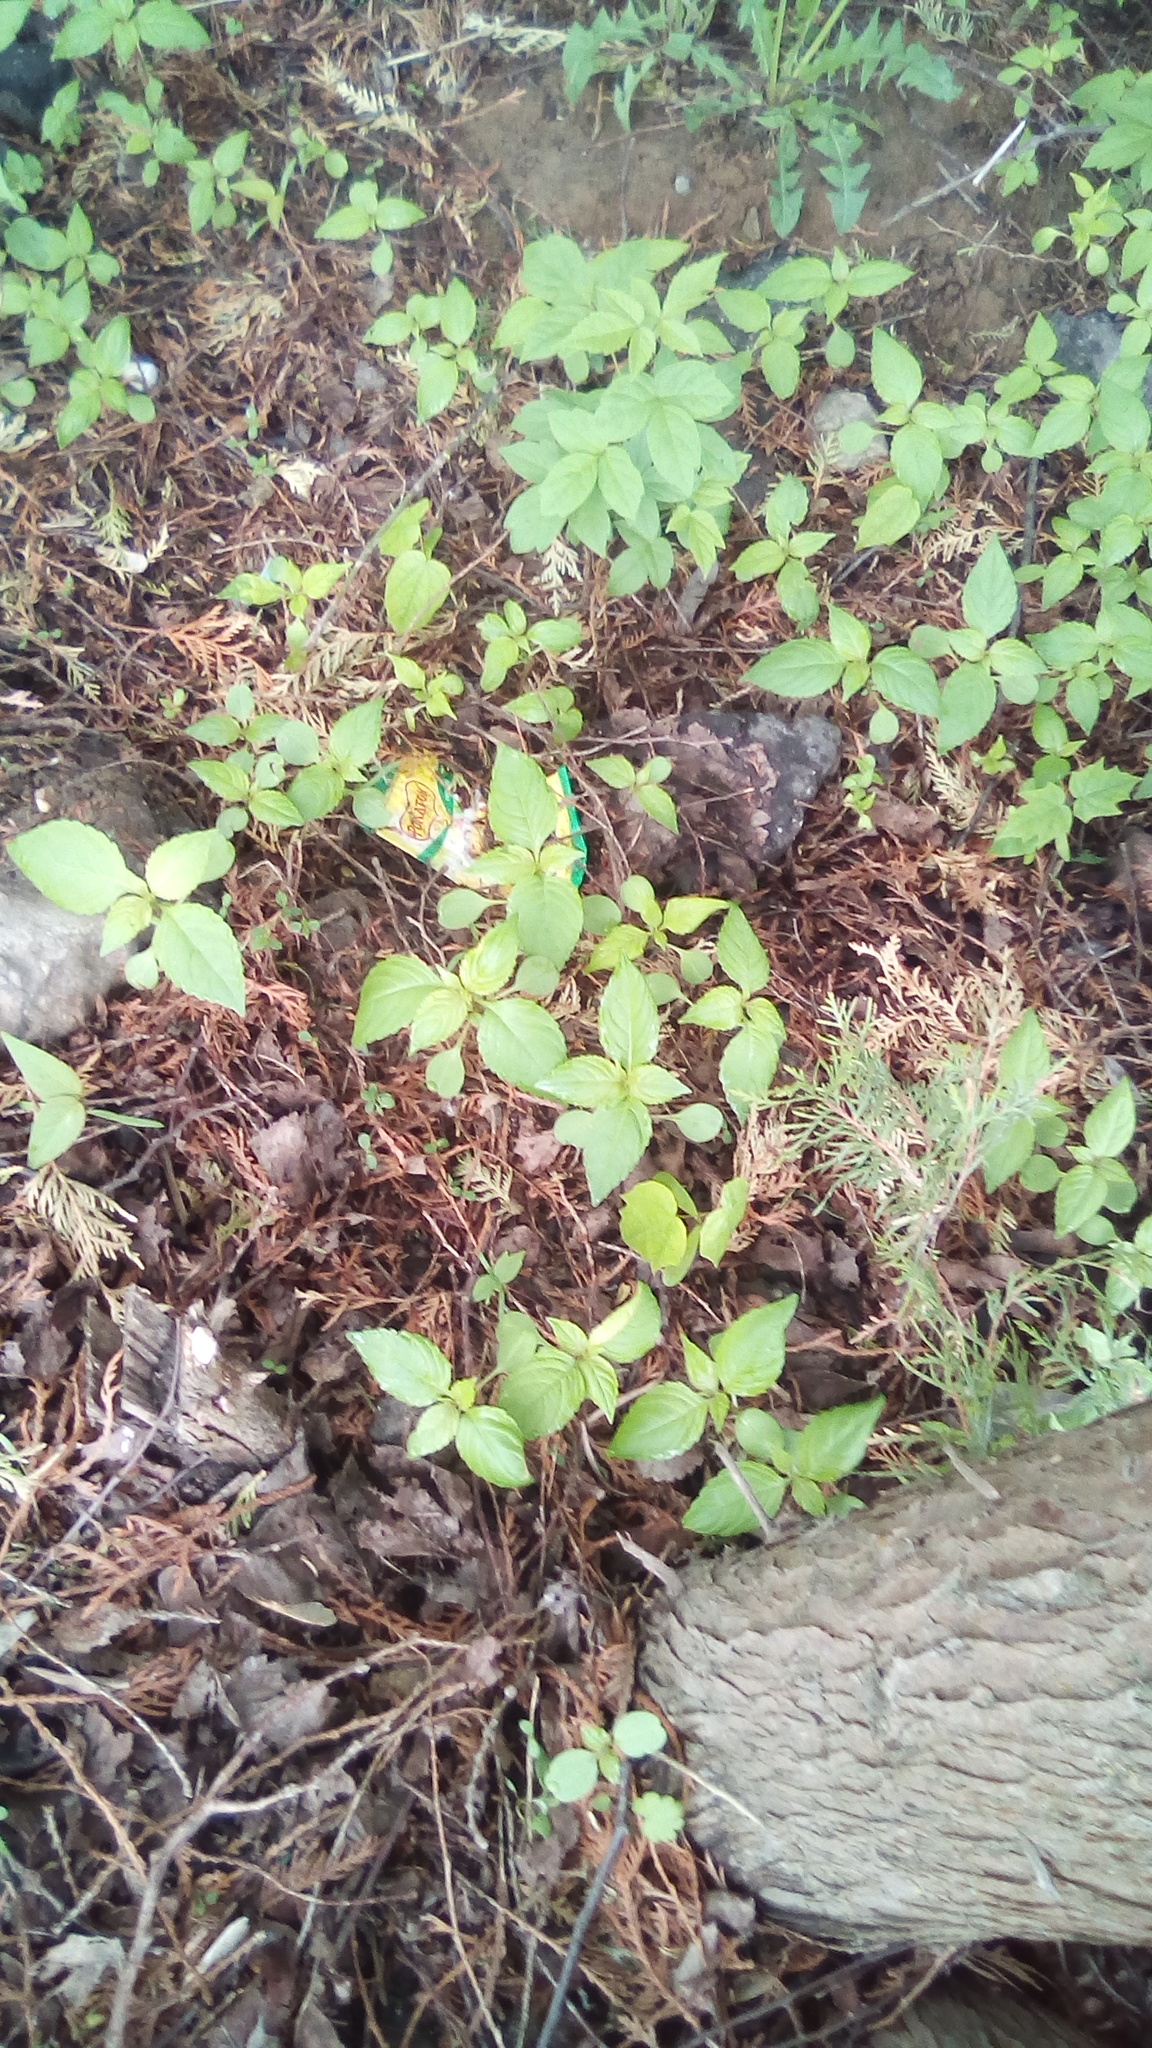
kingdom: Plantae
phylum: Tracheophyta
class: Magnoliopsida
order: Ericales
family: Balsaminaceae
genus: Impatiens
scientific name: Impatiens parviflora
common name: Small balsam
